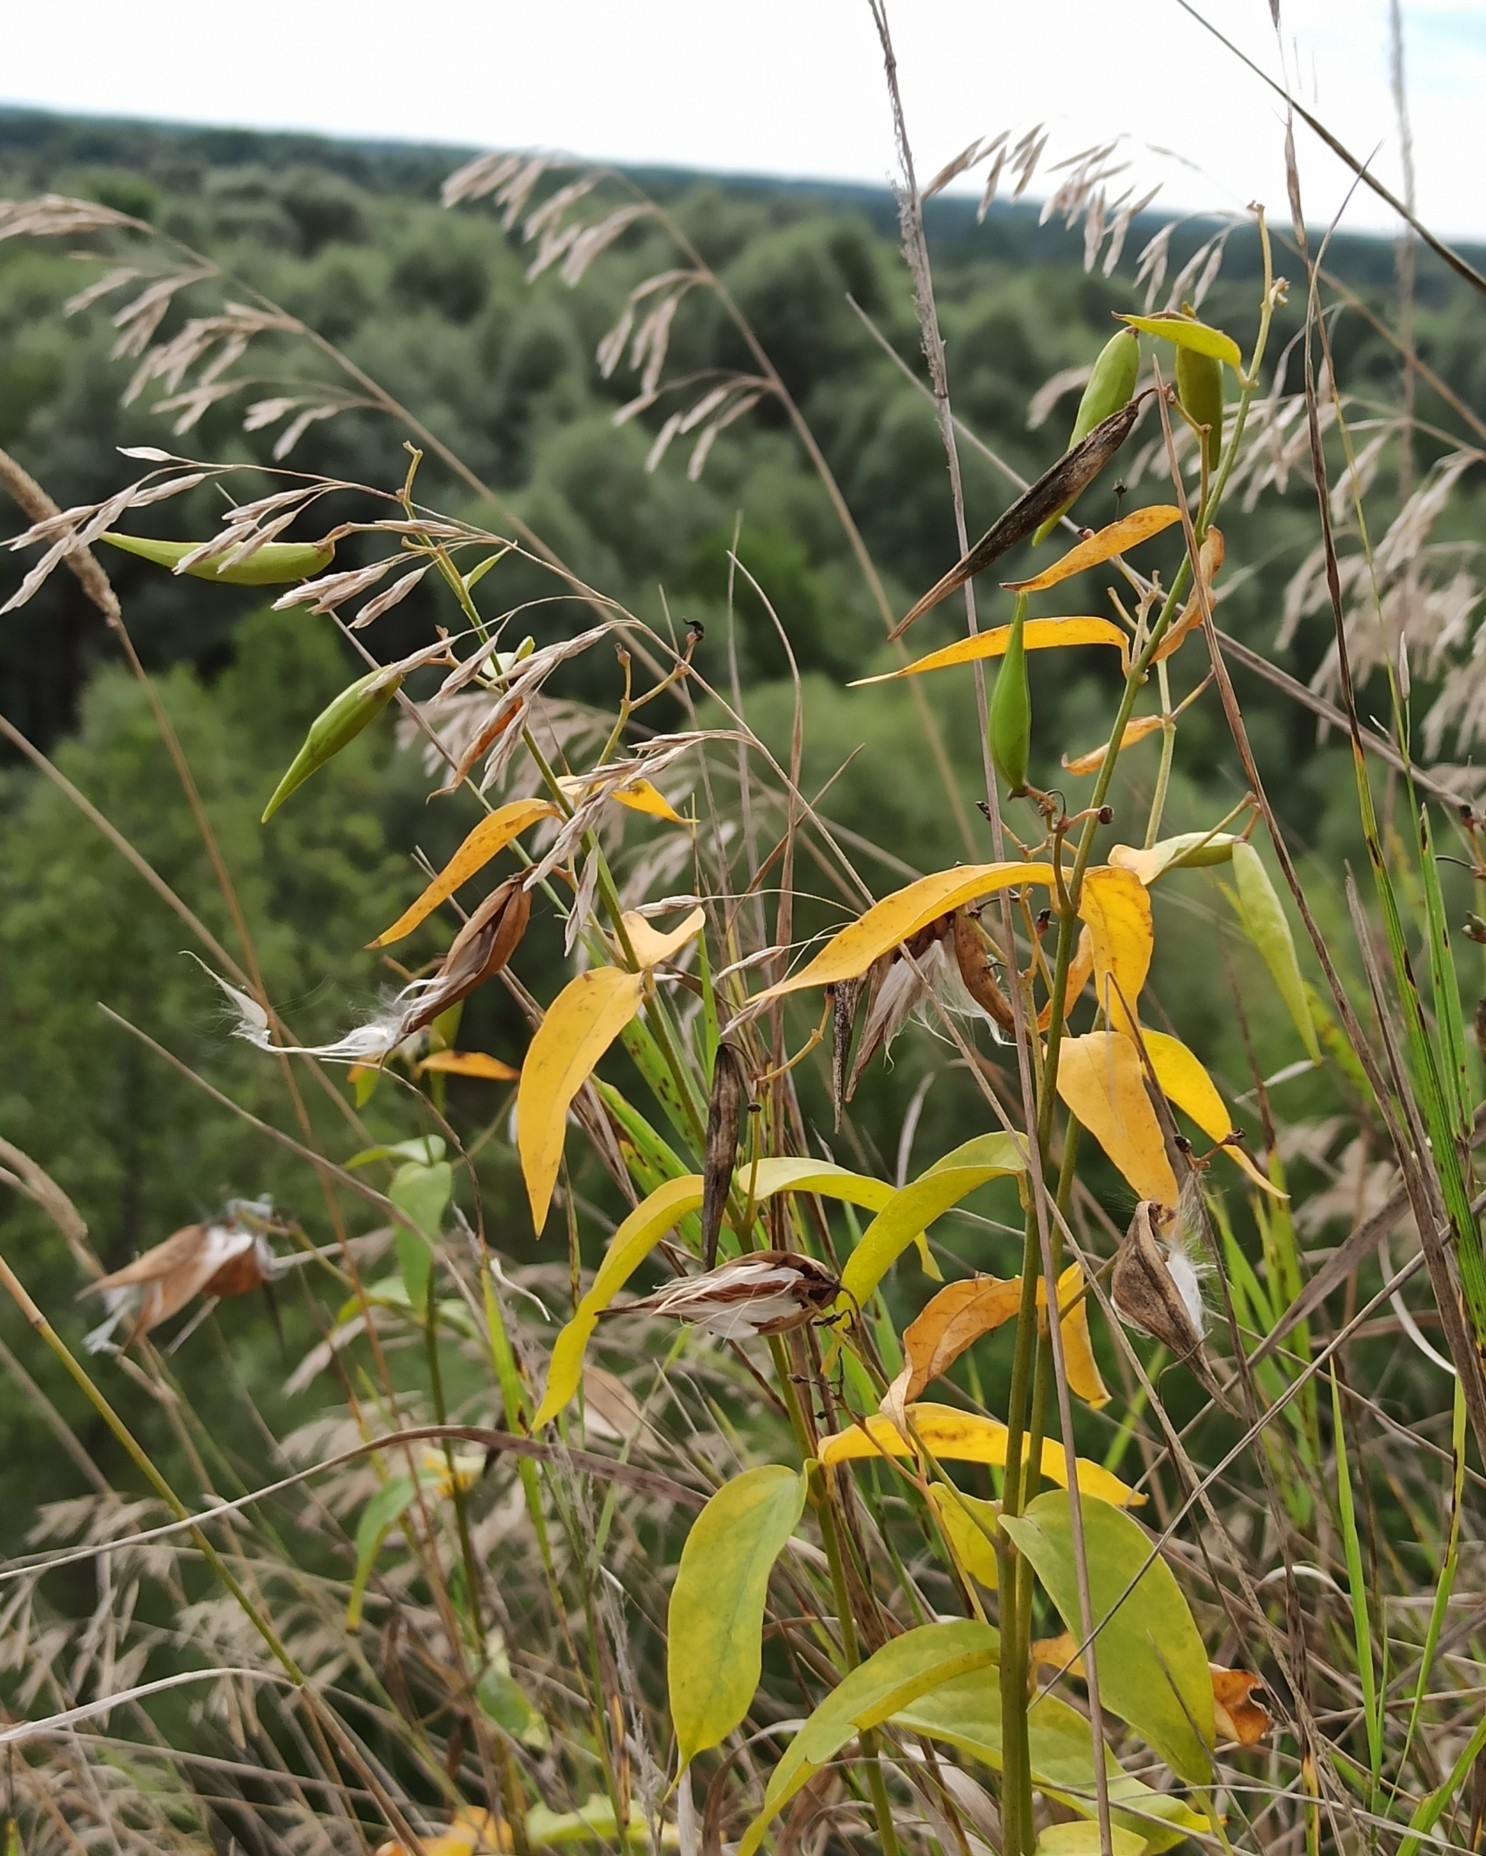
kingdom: Plantae
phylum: Tracheophyta
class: Magnoliopsida
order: Gentianales
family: Apocynaceae
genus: Vincetoxicum
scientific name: Vincetoxicum hirundinaria
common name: White swallowwort
